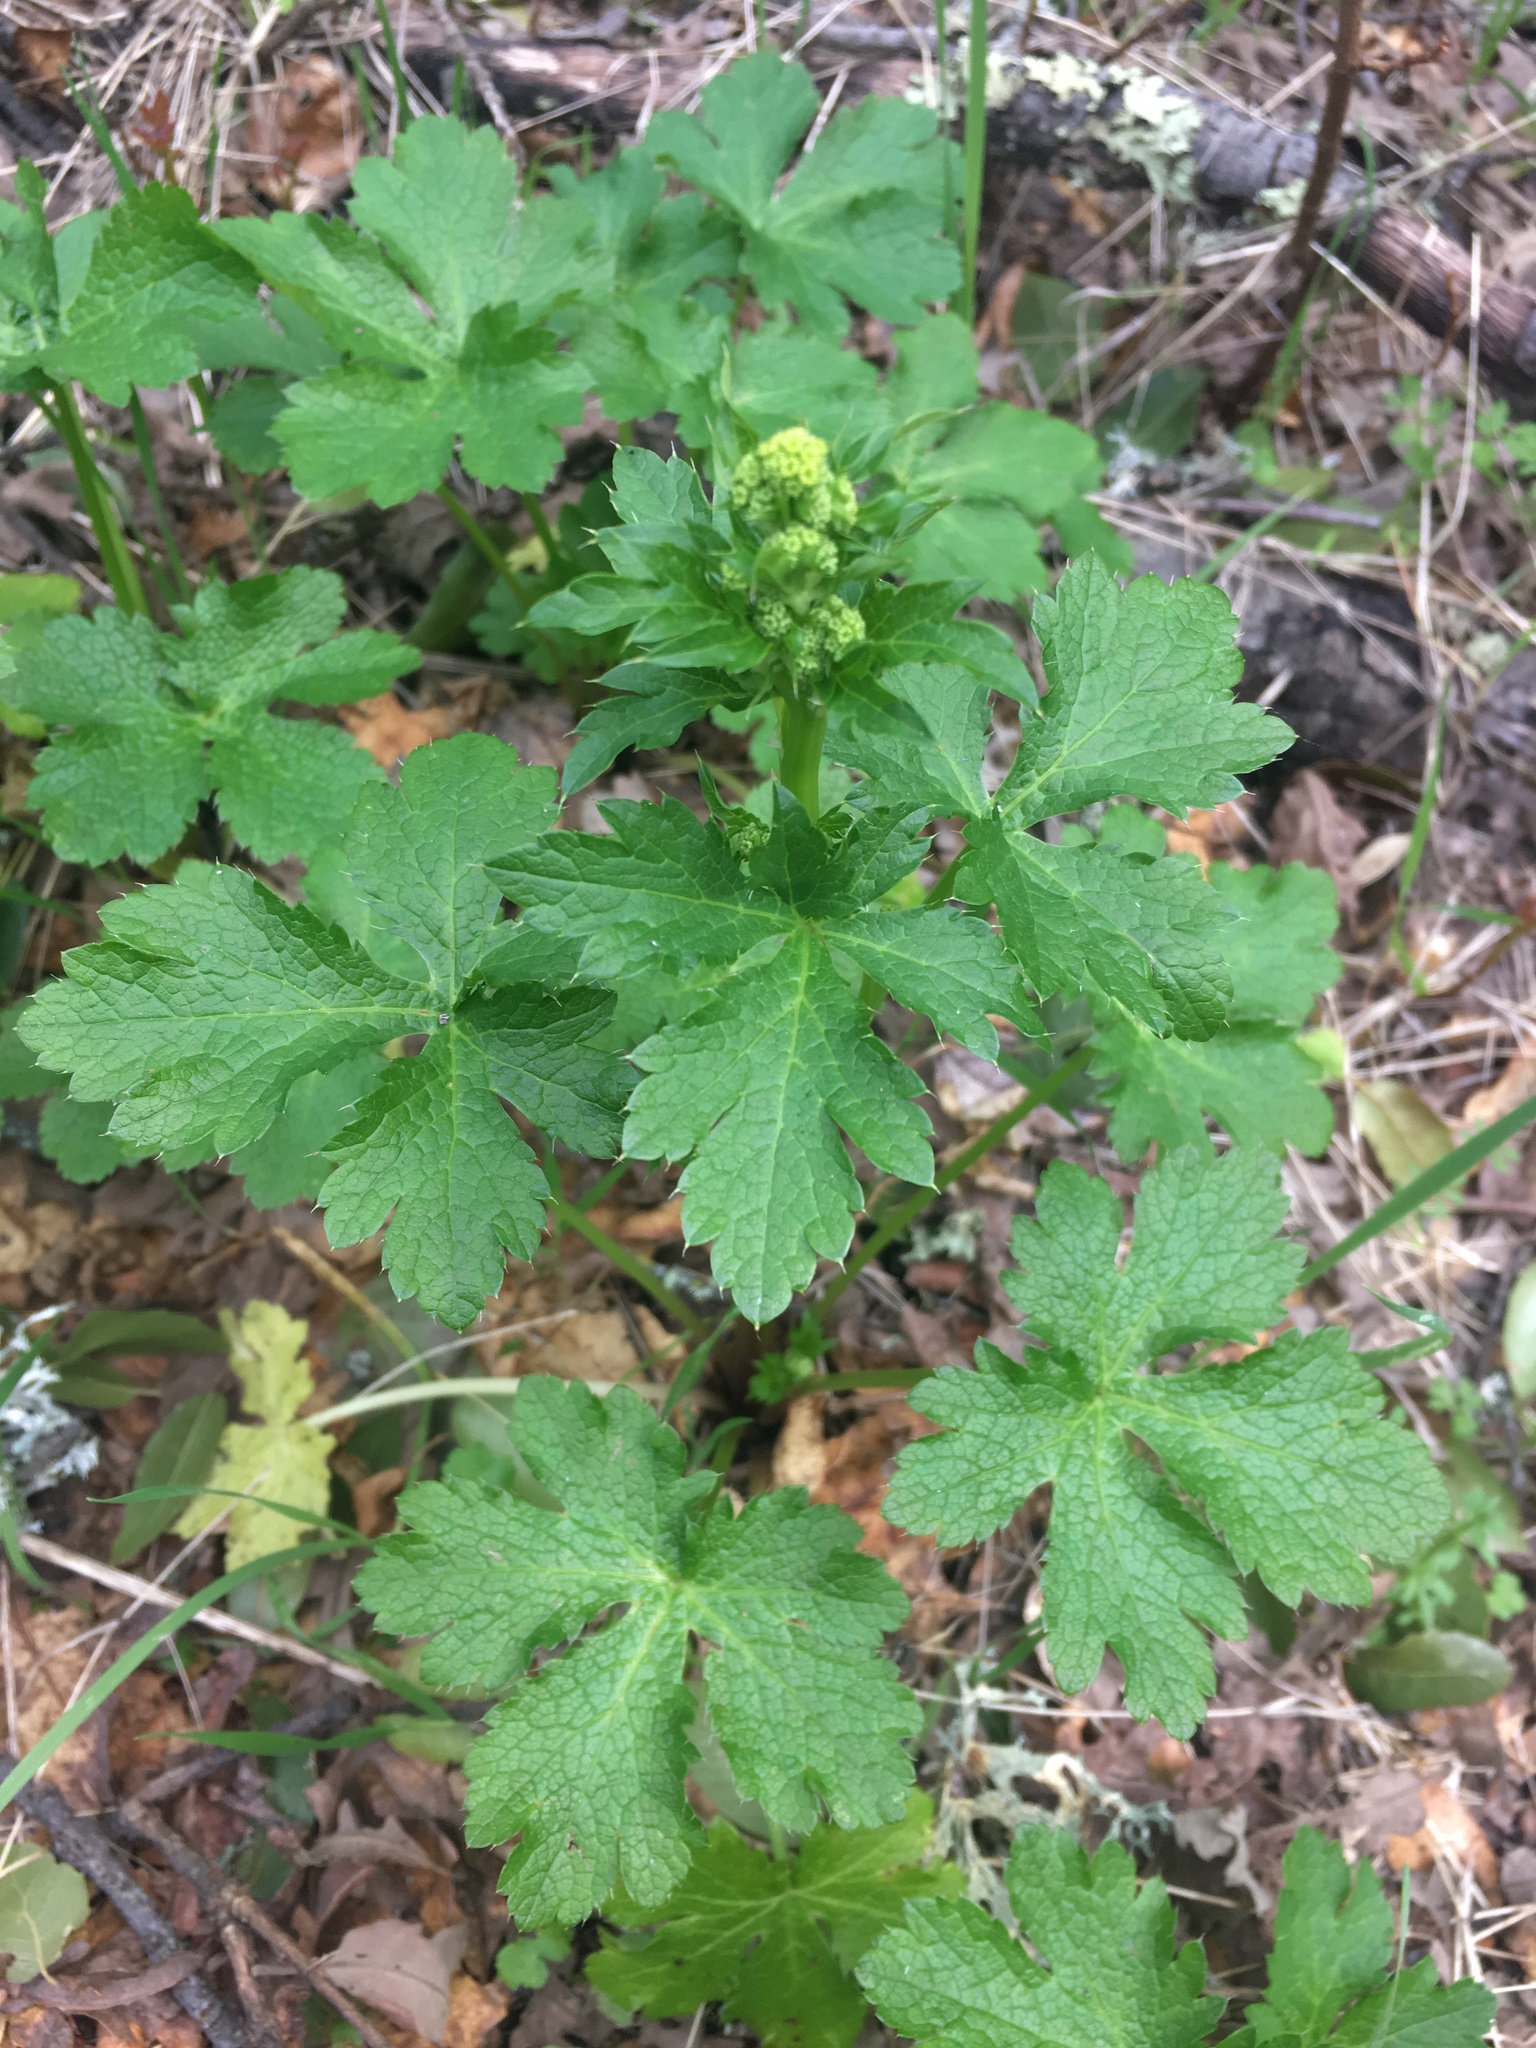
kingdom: Plantae
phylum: Tracheophyta
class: Magnoliopsida
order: Apiales
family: Apiaceae
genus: Sanicula
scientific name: Sanicula crassicaulis
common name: Western snakeroot
